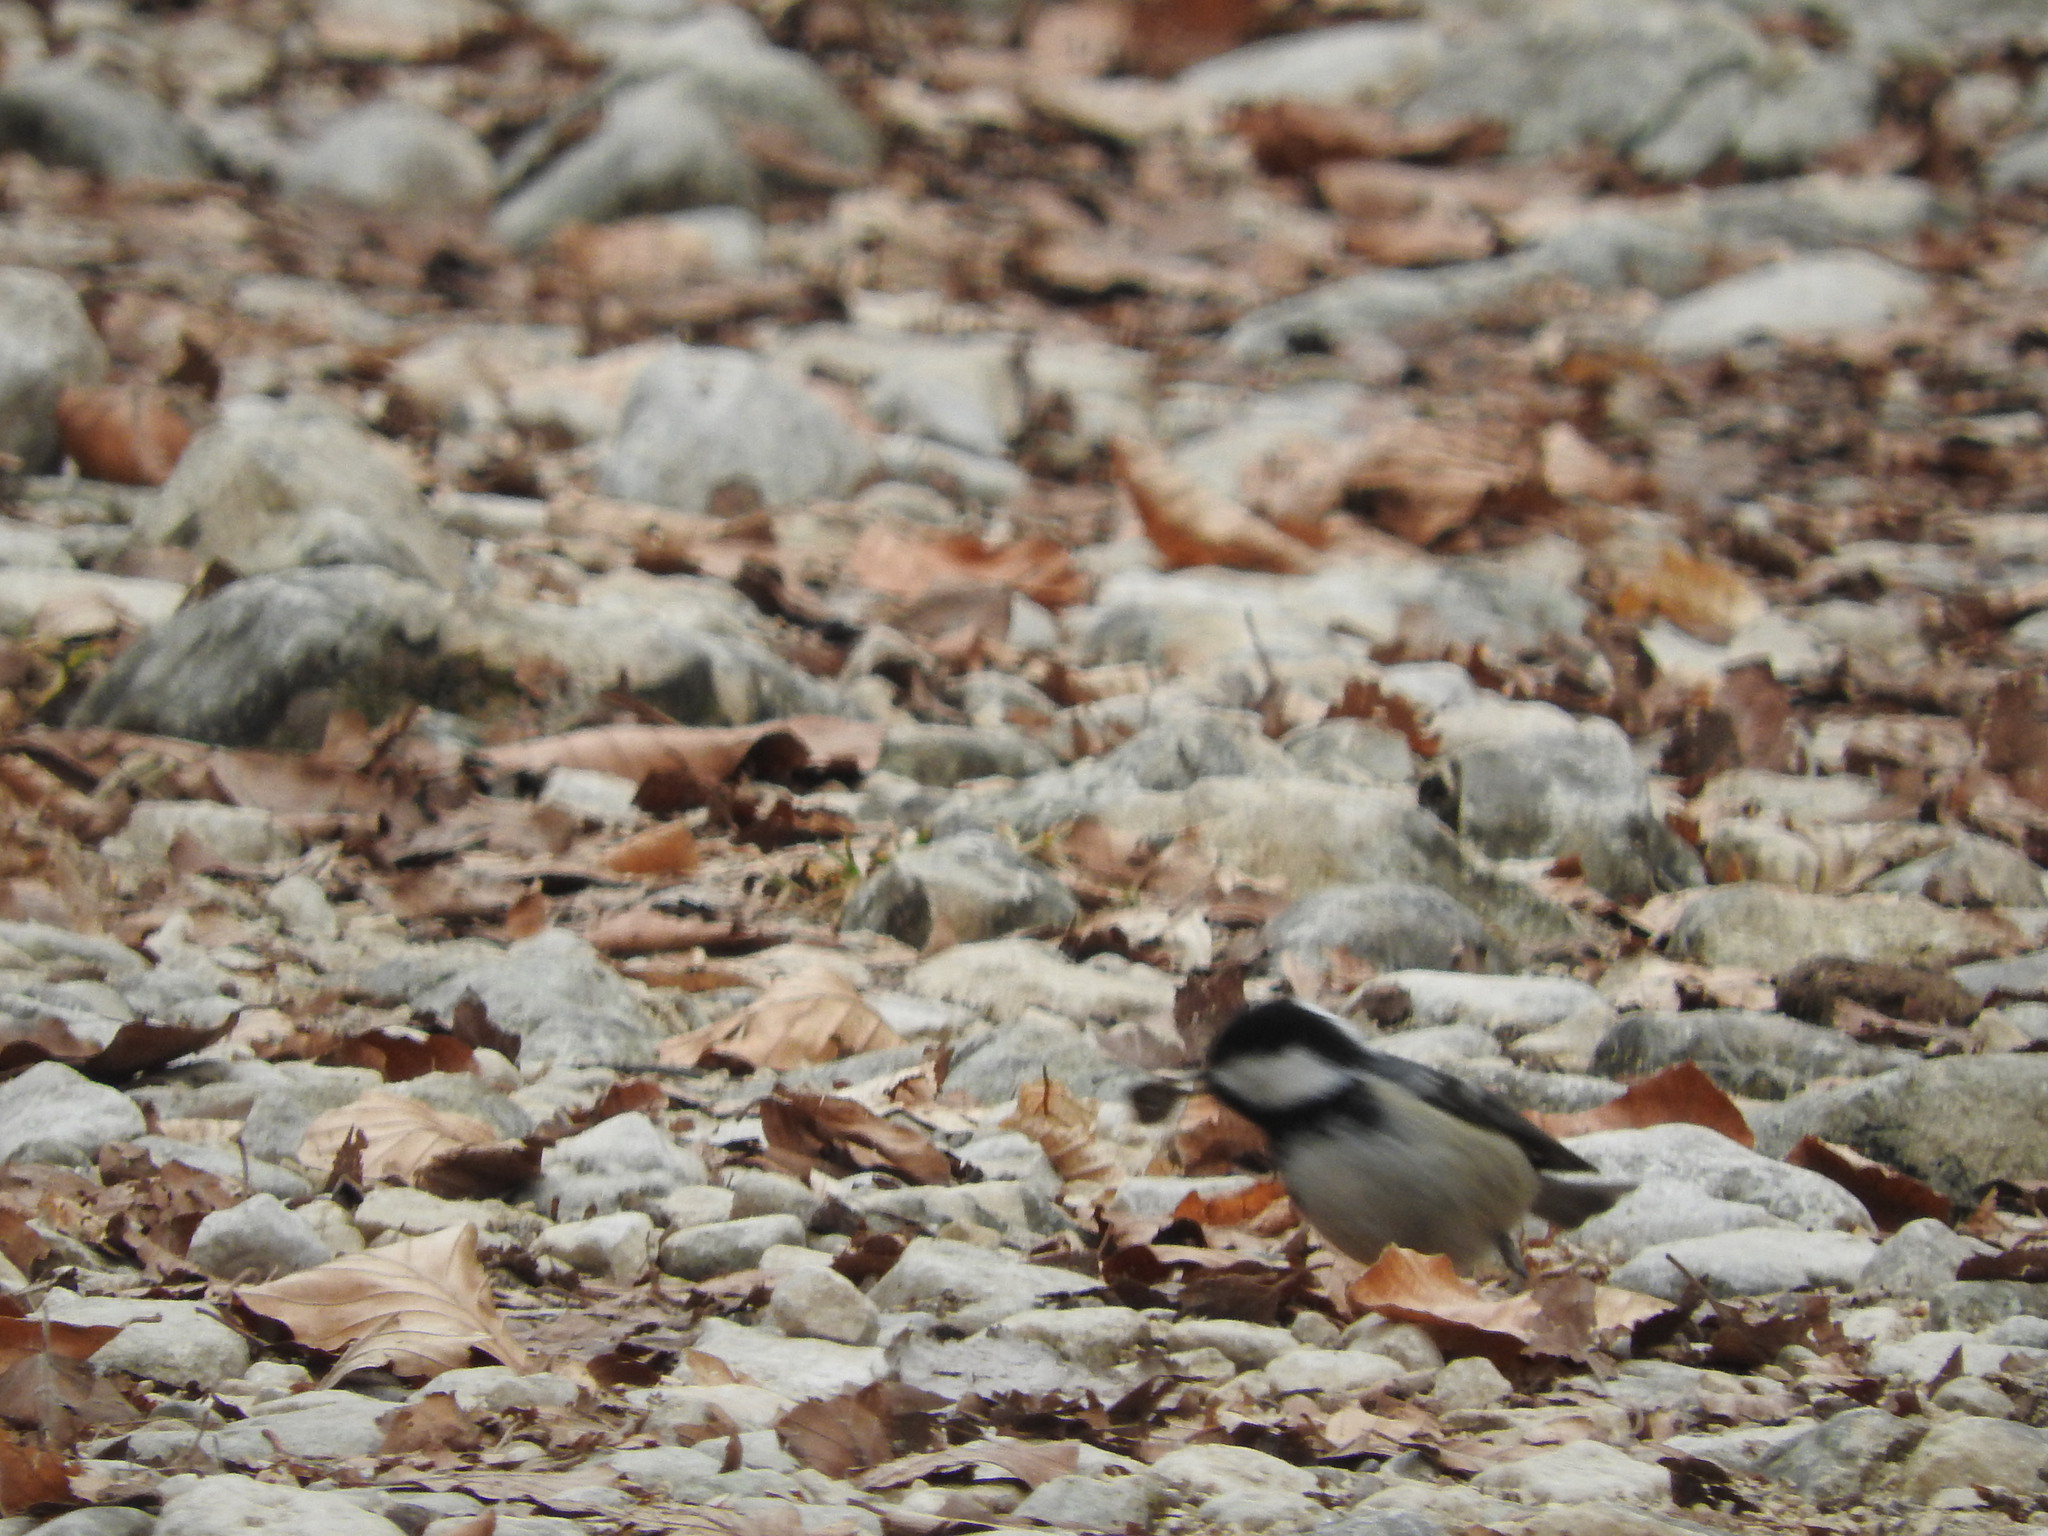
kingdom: Animalia
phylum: Chordata
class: Aves
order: Passeriformes
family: Paridae
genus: Periparus
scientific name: Periparus ater
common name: Coal tit
